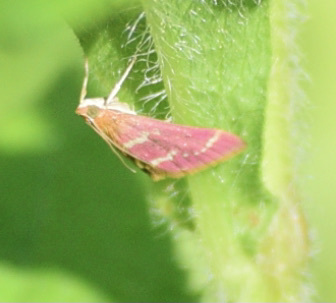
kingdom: Animalia
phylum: Arthropoda
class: Insecta
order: Lepidoptera
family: Crambidae
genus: Pyrausta
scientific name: Pyrausta signatalis
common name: Raspberry pyrausta moth
